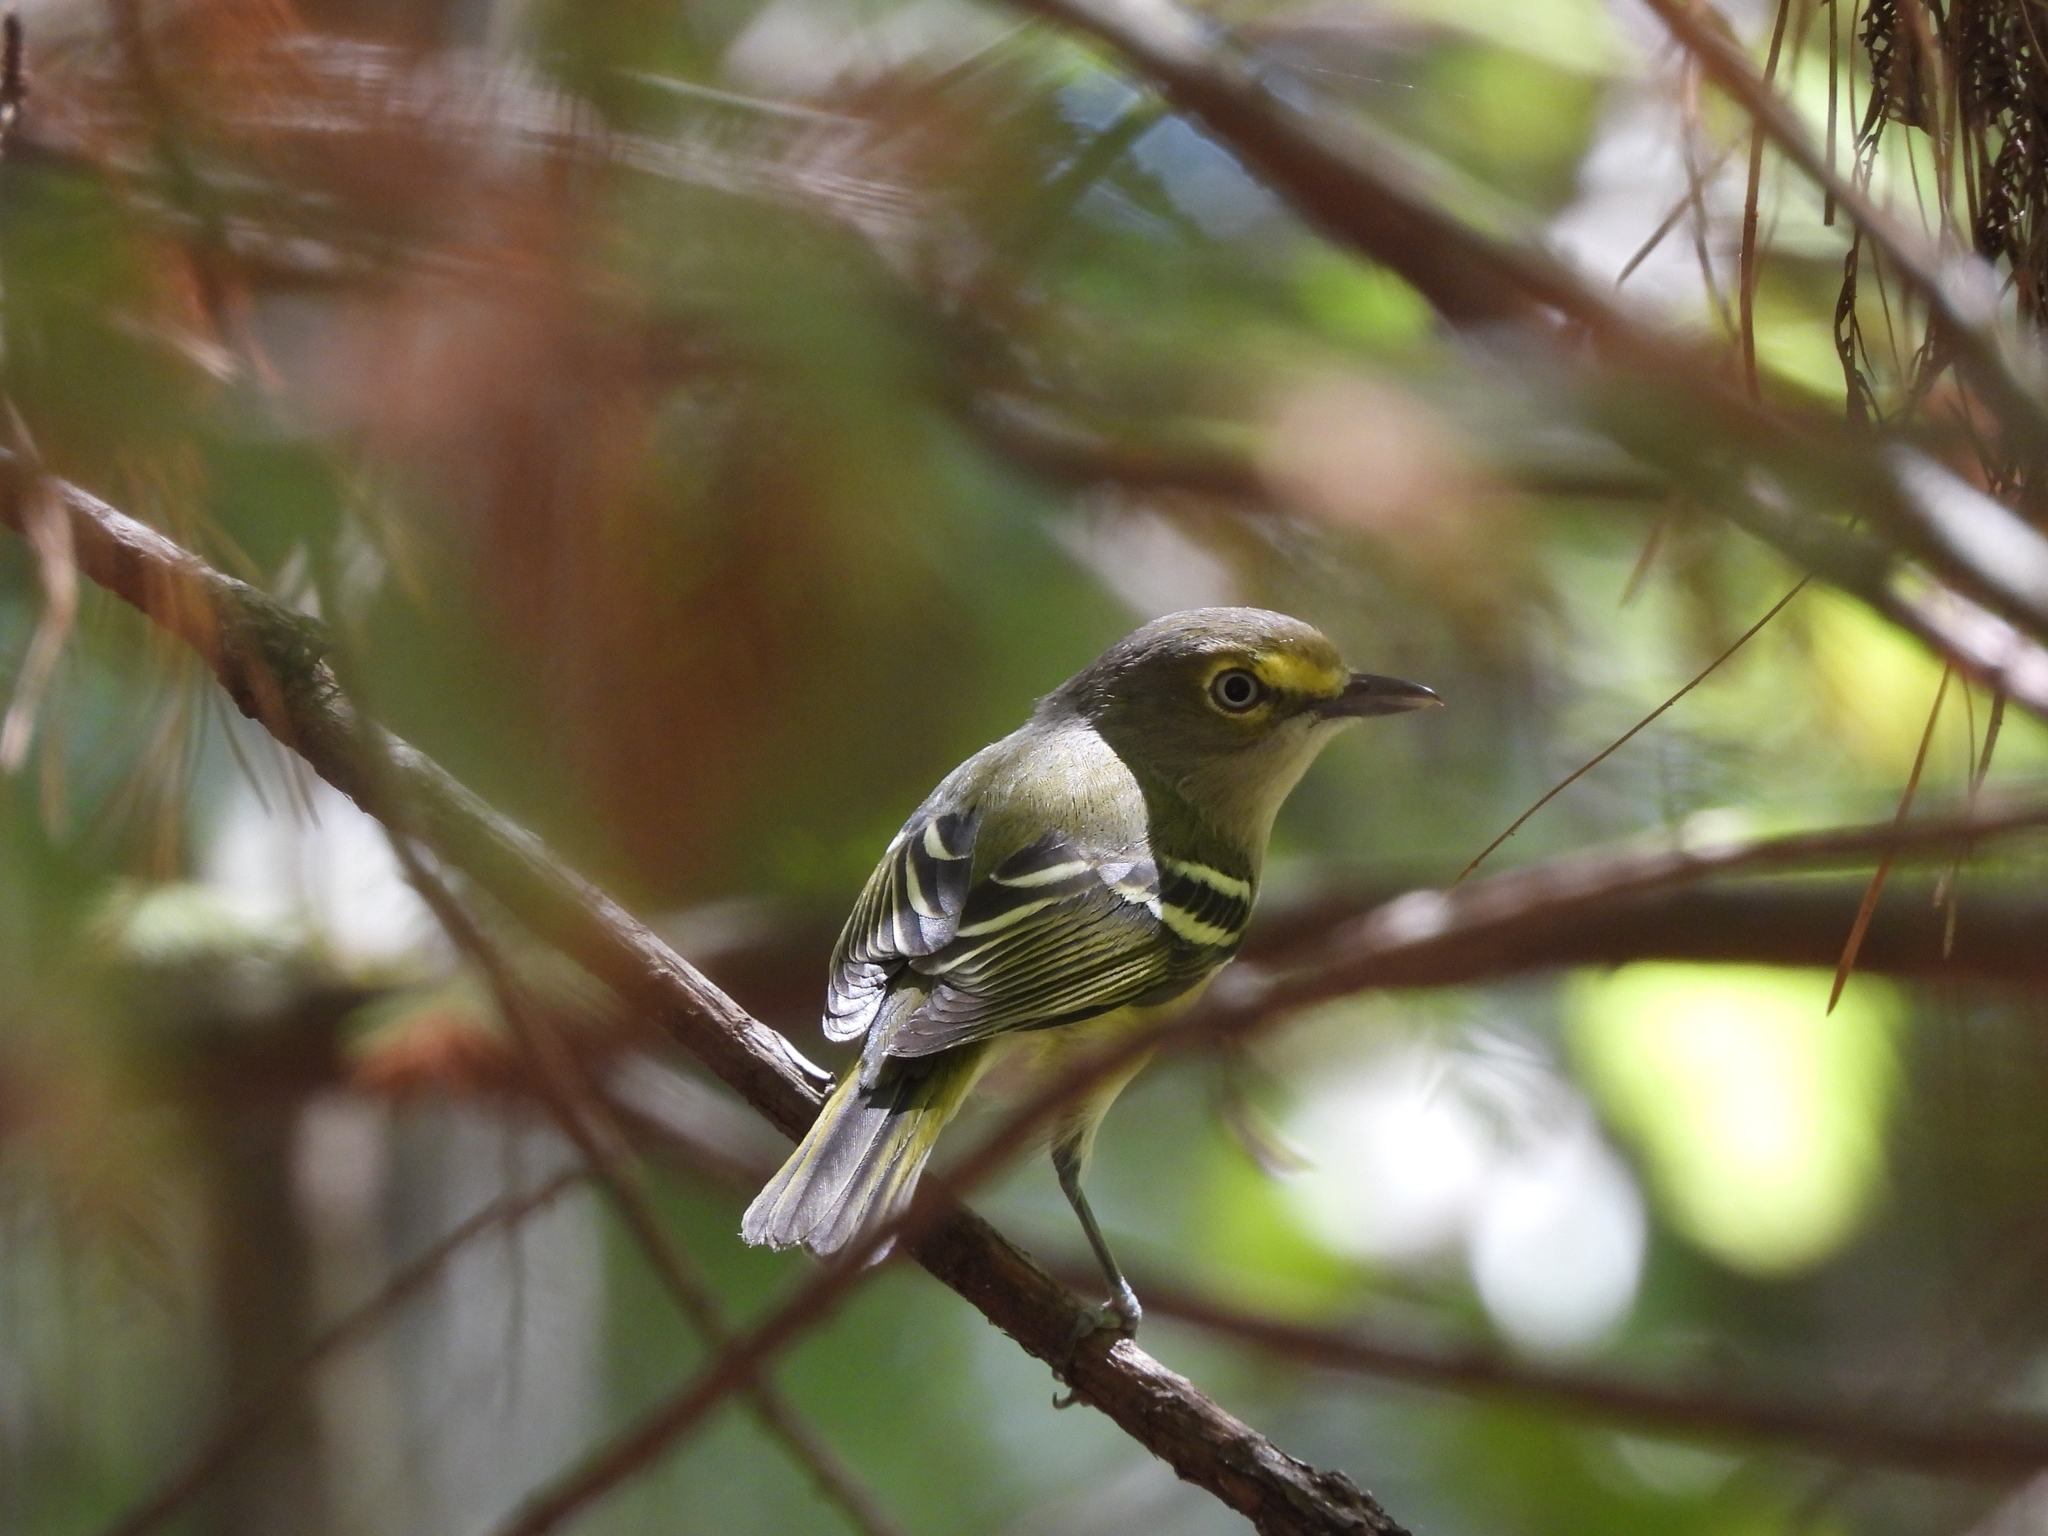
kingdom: Animalia
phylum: Chordata
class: Aves
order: Passeriformes
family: Vireonidae
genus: Vireo
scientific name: Vireo griseus
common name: White-eyed vireo
